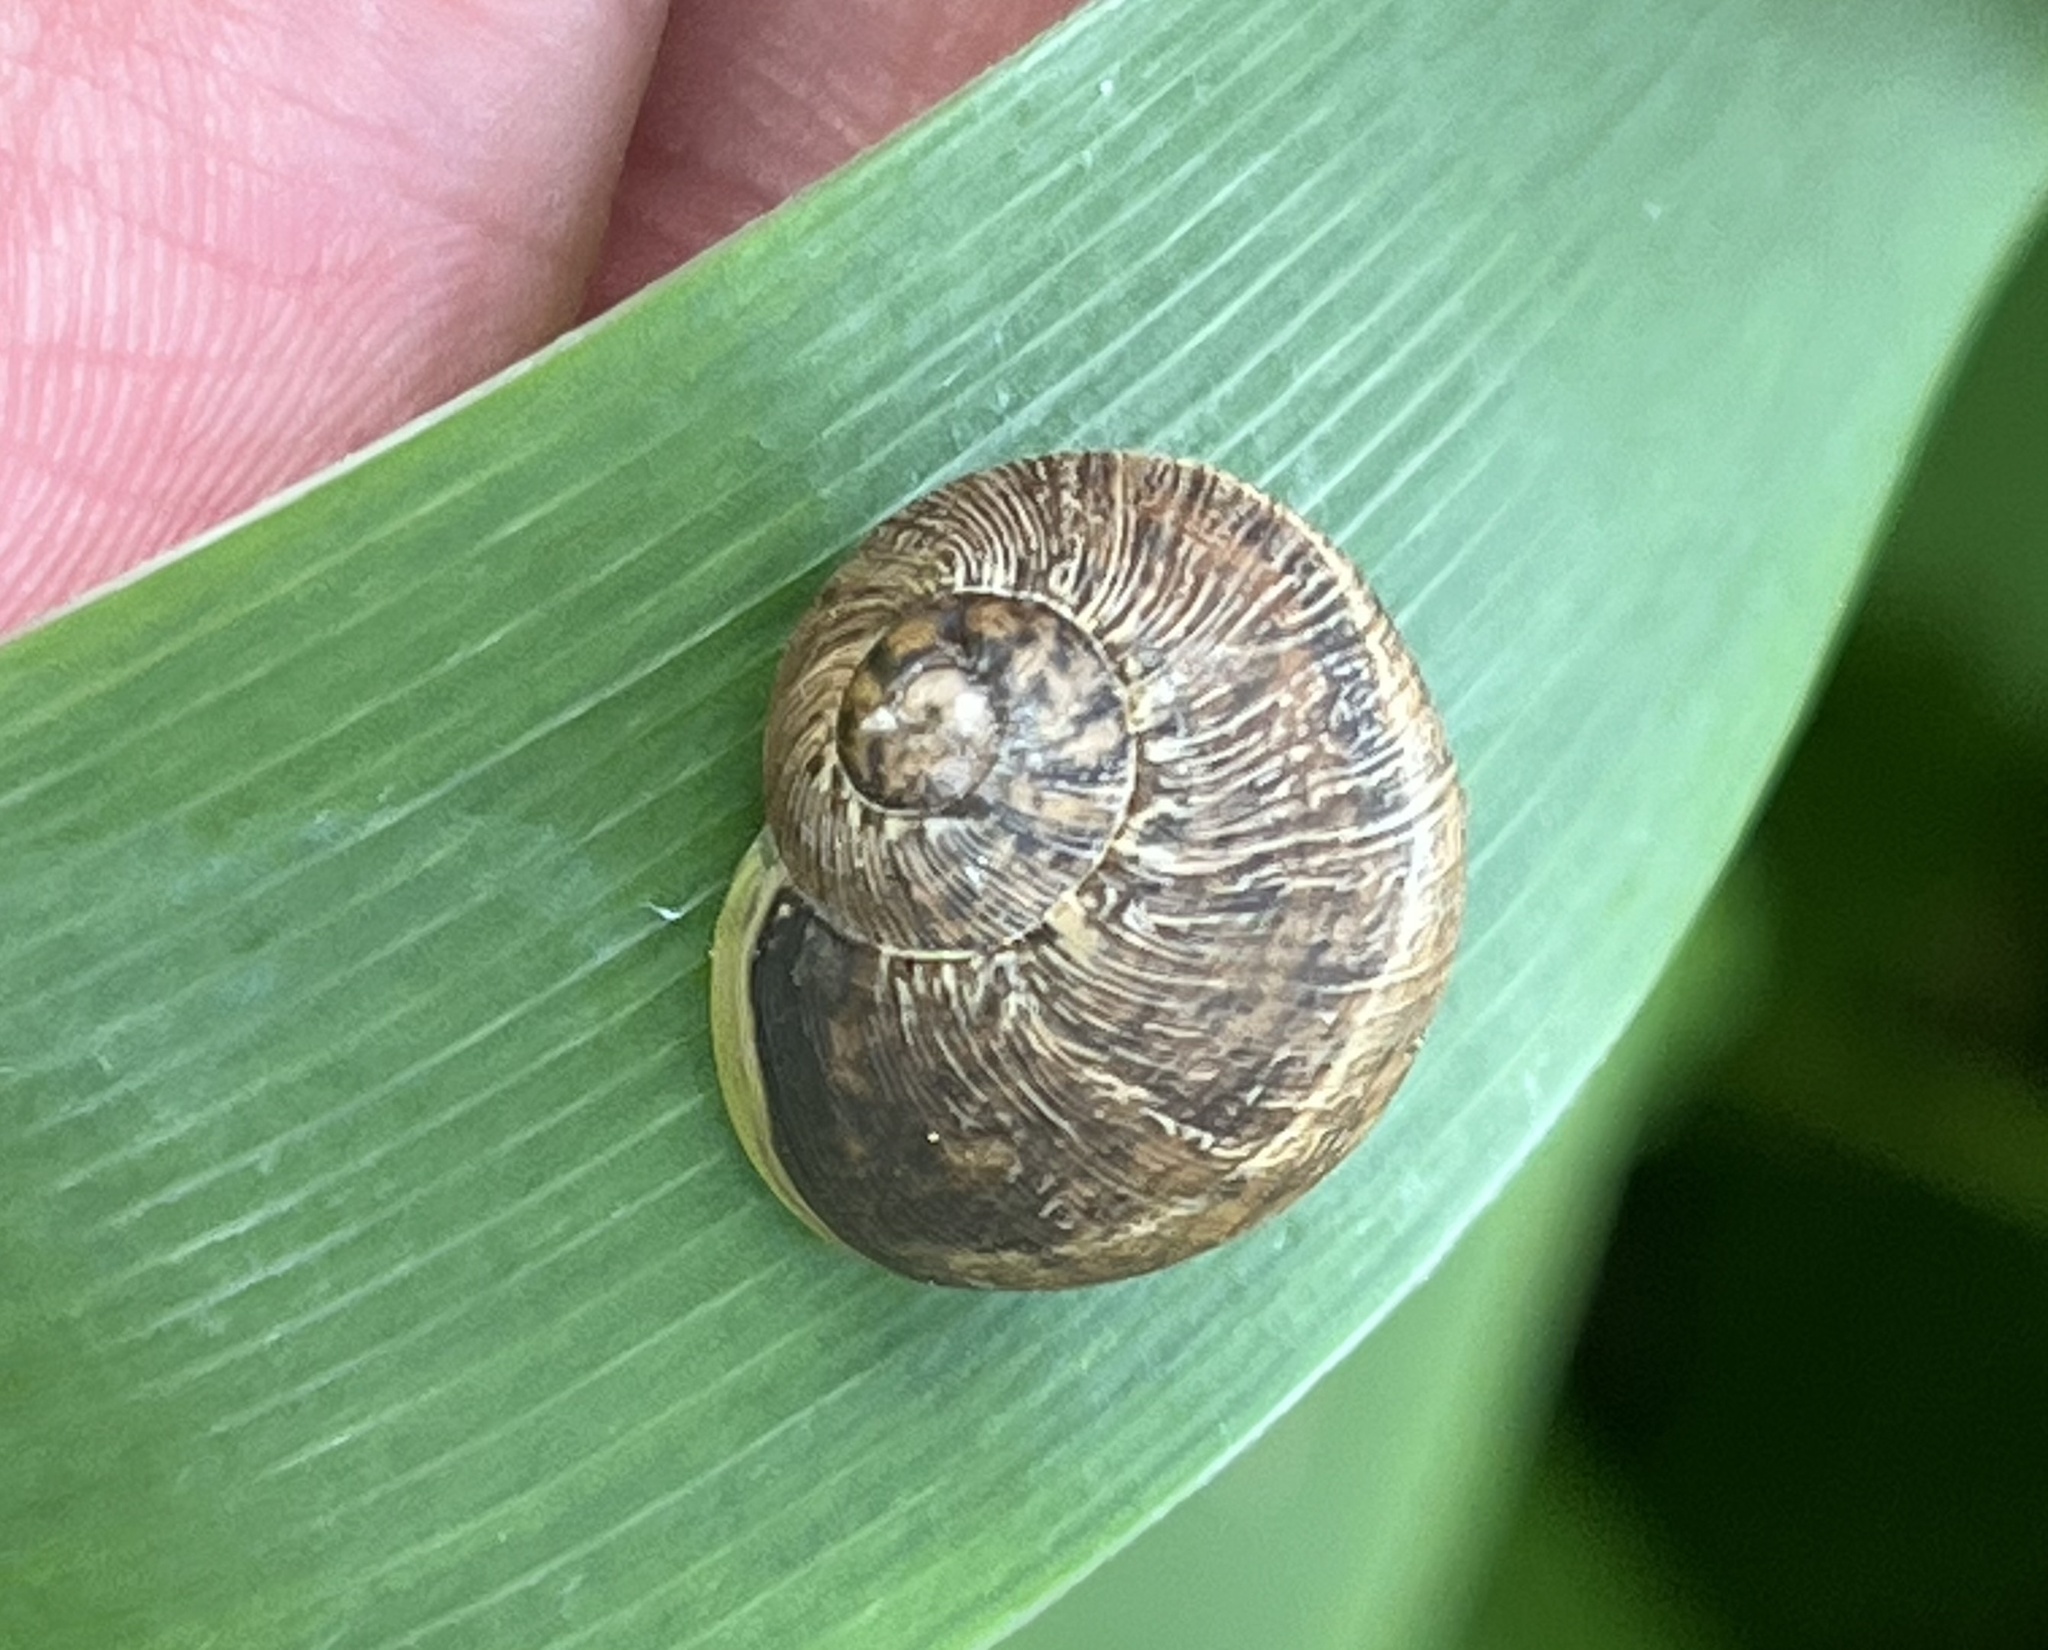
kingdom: Animalia
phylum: Mollusca
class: Gastropoda
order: Stylommatophora
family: Helicidae
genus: Cornu
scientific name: Cornu aspersum
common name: Brown garden snail
